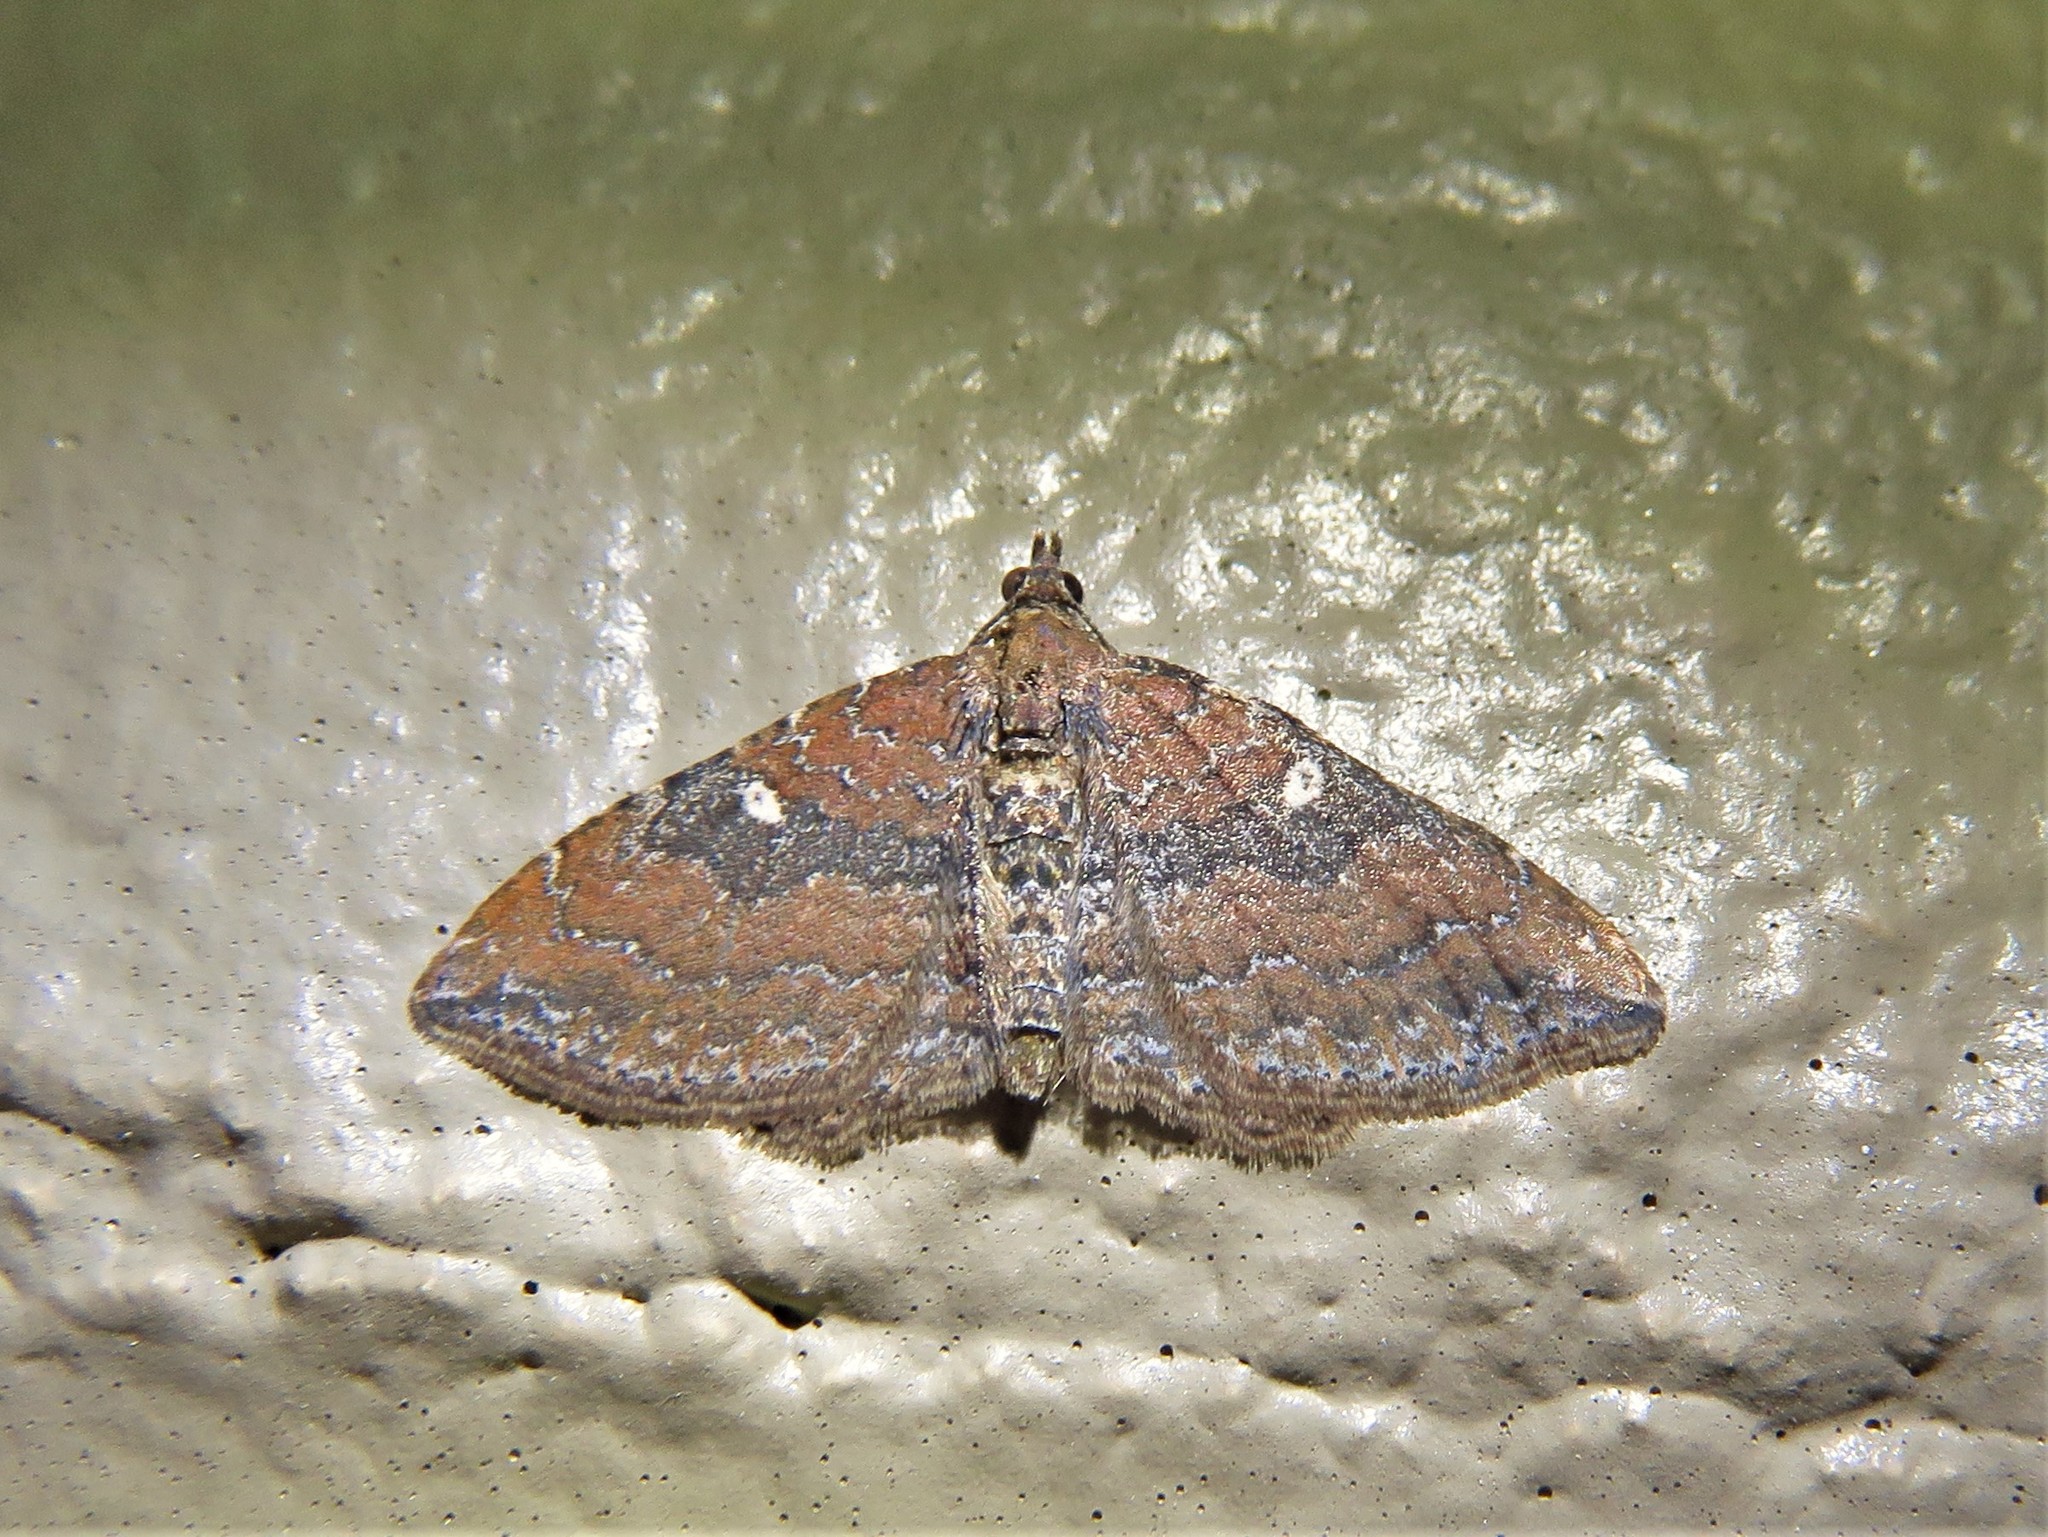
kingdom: Animalia
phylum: Arthropoda
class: Insecta
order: Lepidoptera
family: Geometridae
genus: Orthonama
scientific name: Orthonama obstipata
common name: The gem
